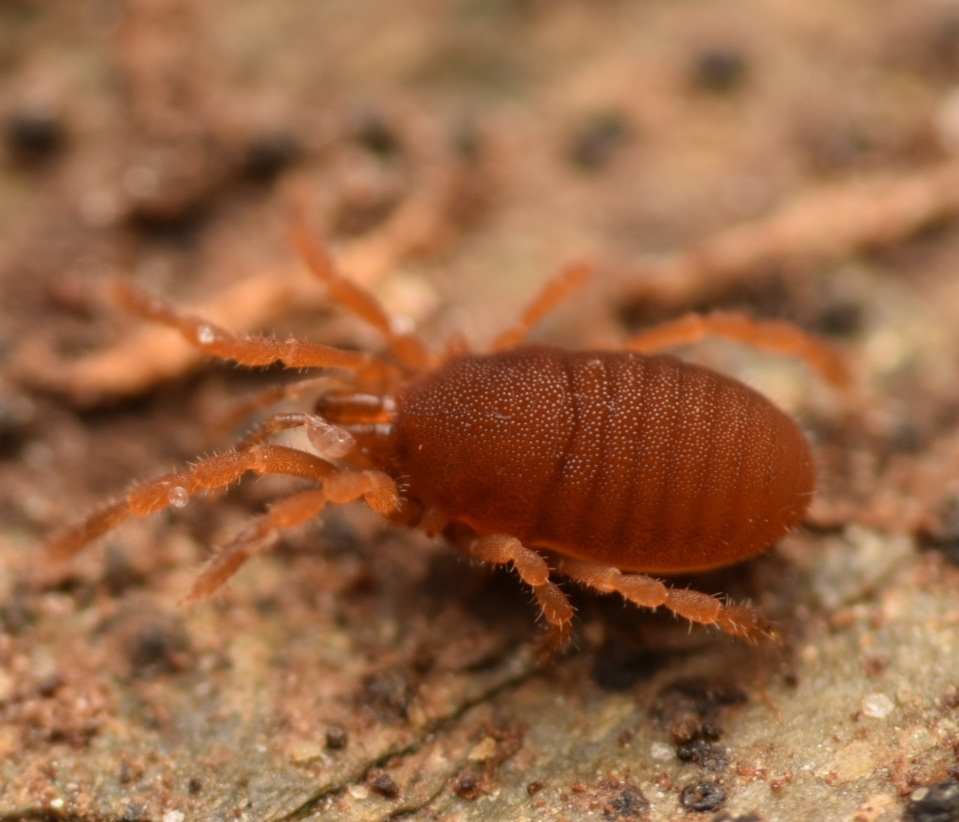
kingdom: Animalia
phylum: Arthropoda
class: Arachnida
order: Opiliones
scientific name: Opiliones
